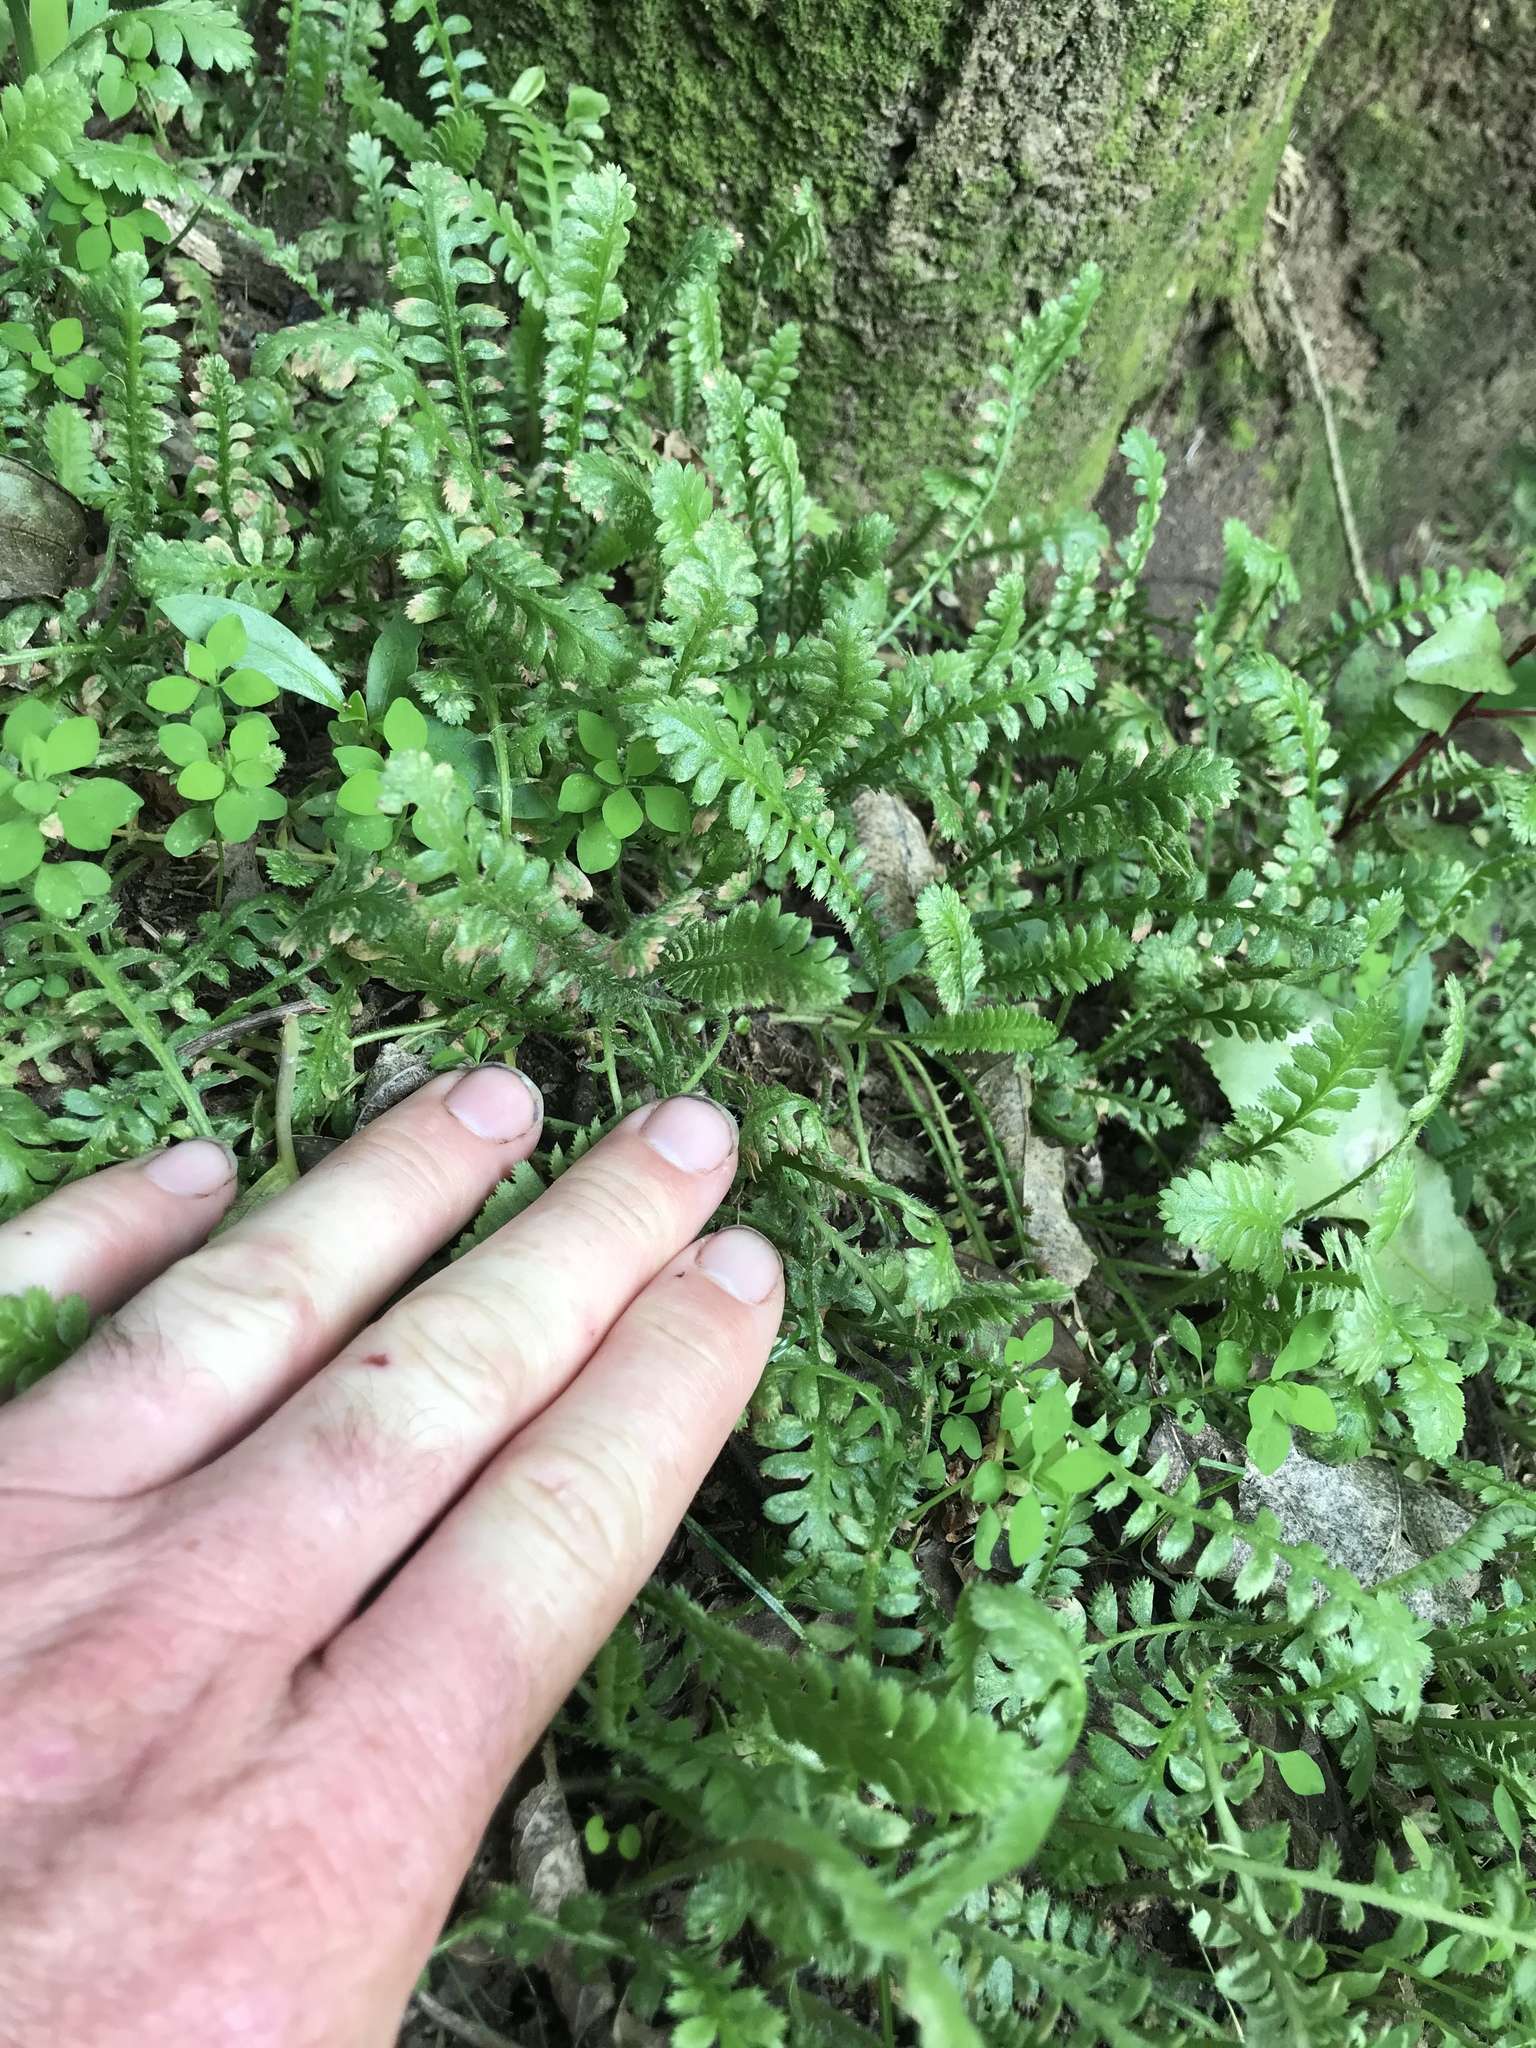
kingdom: Plantae
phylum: Tracheophyta
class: Magnoliopsida
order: Asterales
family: Asteraceae
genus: Leptinella
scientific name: Leptinella dioica
